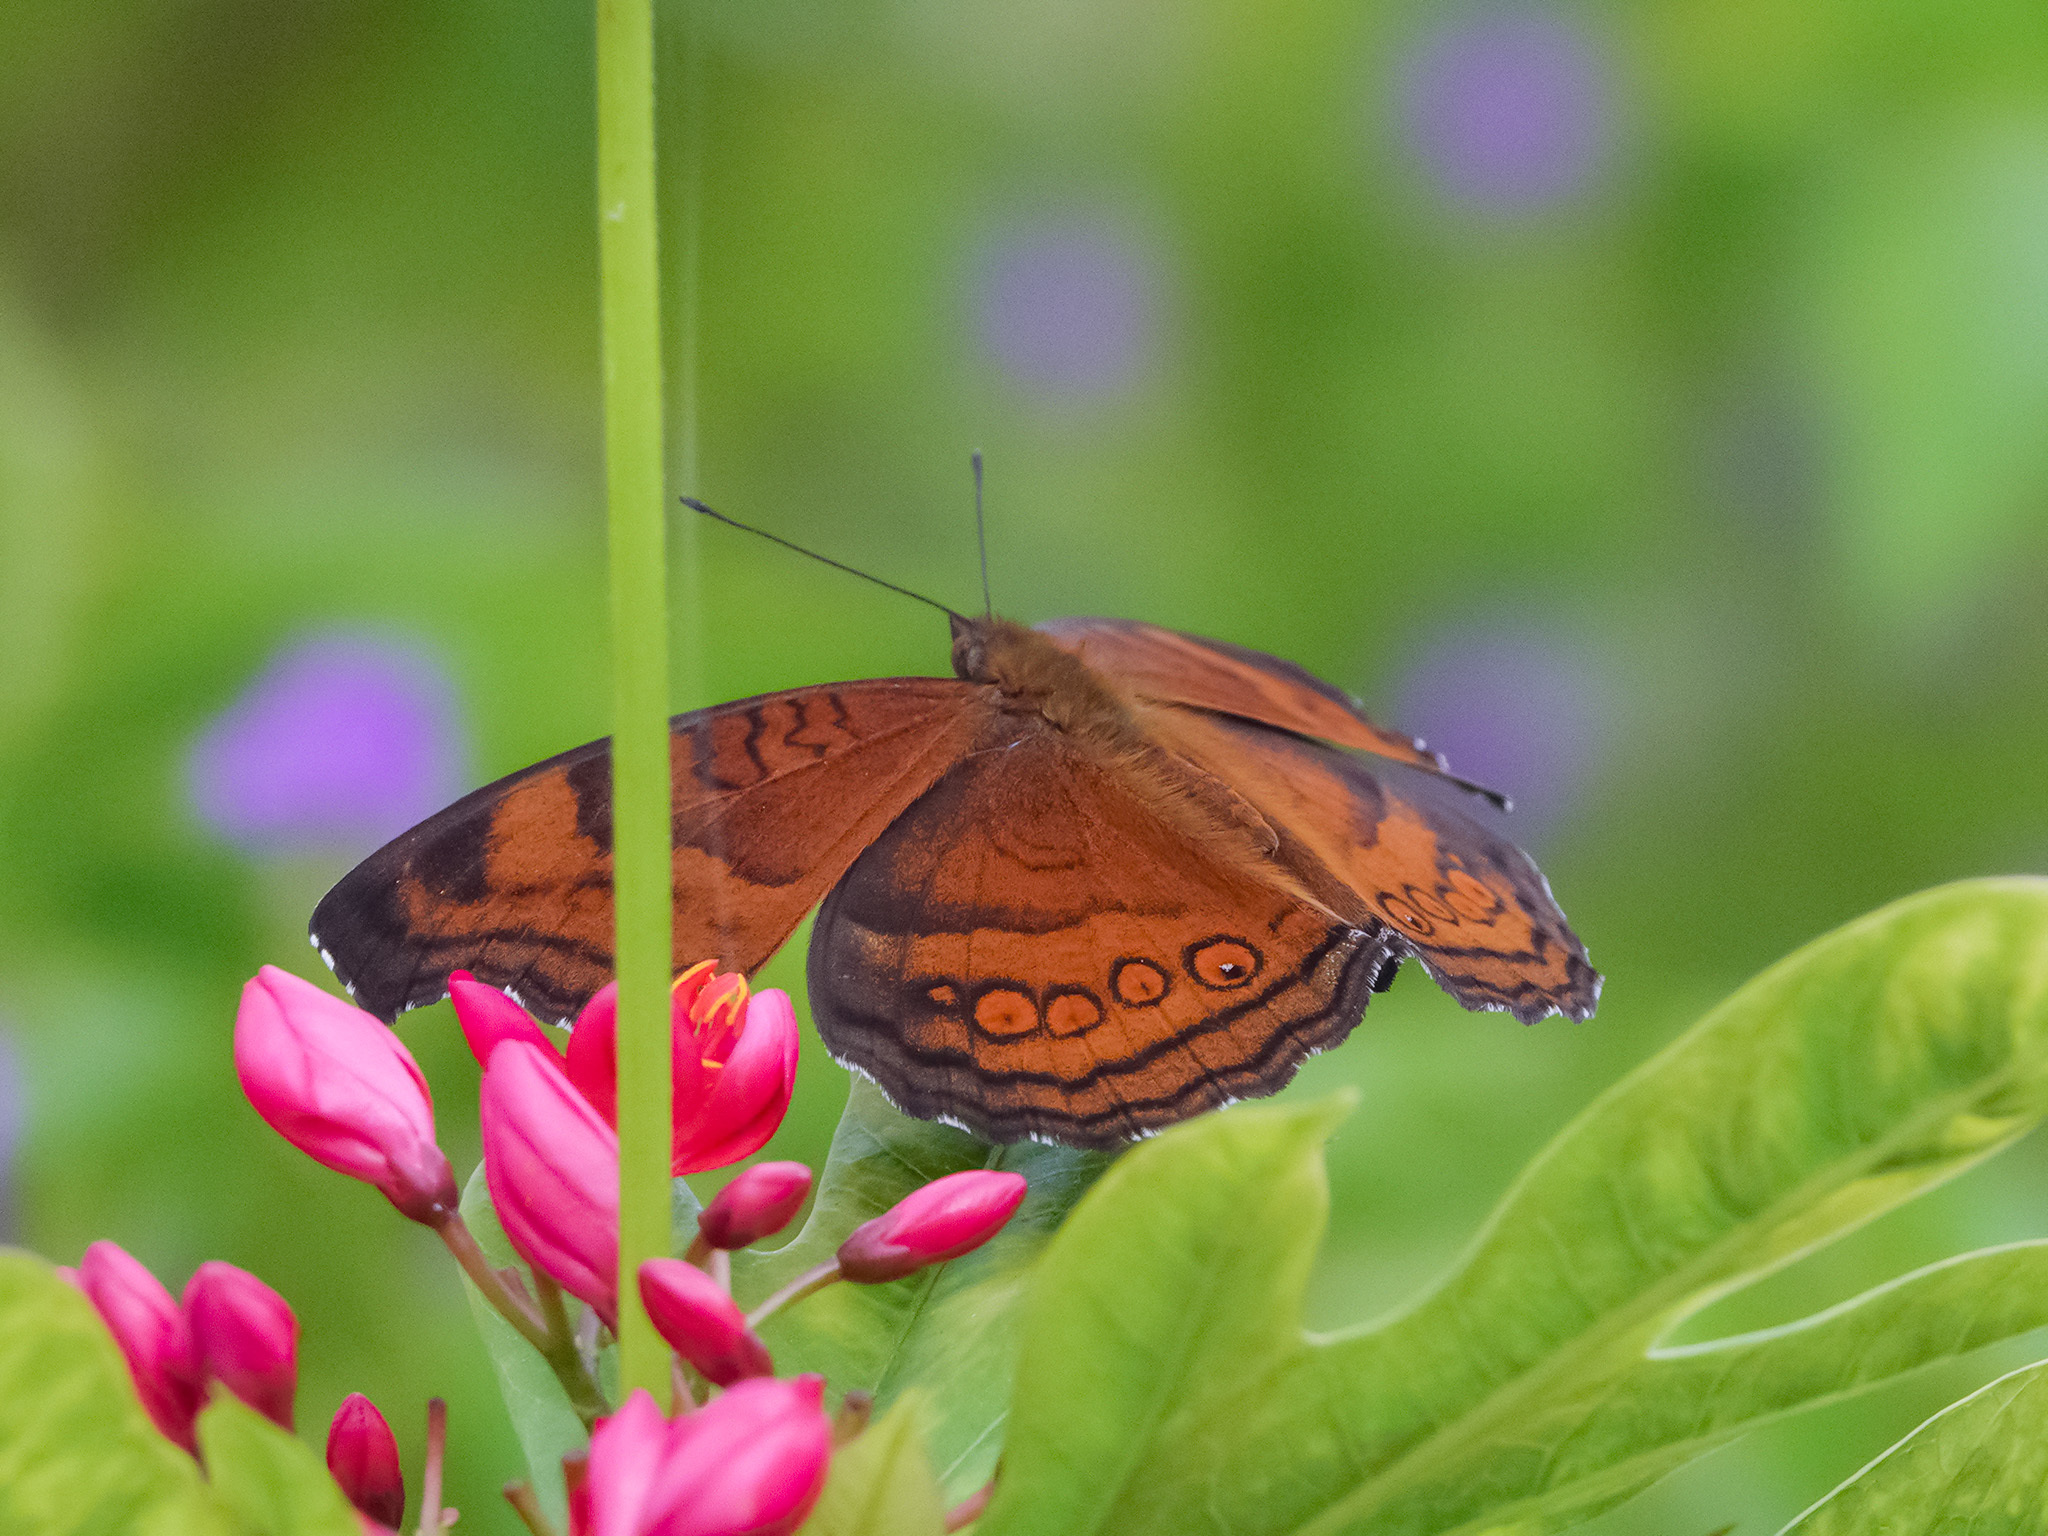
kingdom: Animalia
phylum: Arthropoda
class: Insecta
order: Lepidoptera
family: Nymphalidae
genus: Junonia
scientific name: Junonia hedonia
